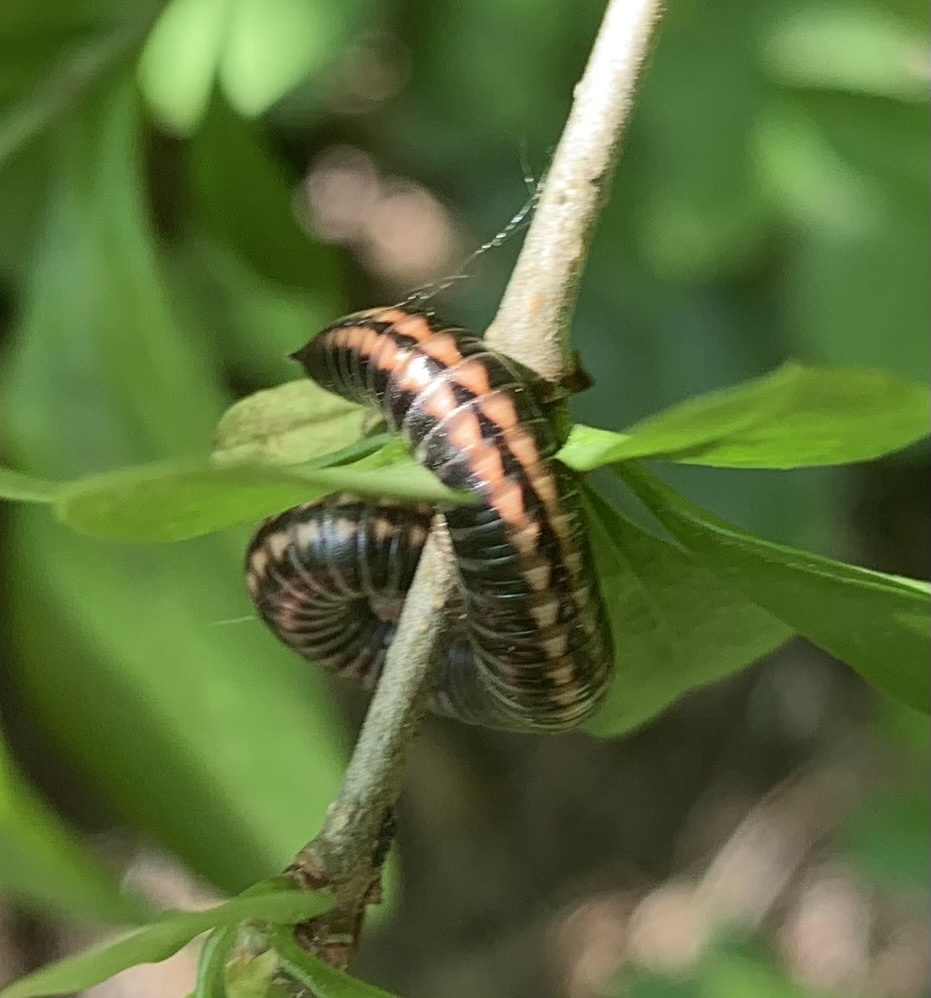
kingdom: Animalia
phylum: Arthropoda
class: Diplopoda
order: Julida
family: Julidae
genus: Ommatoiulus
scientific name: Ommatoiulus sabulosus
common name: Striped millipede
